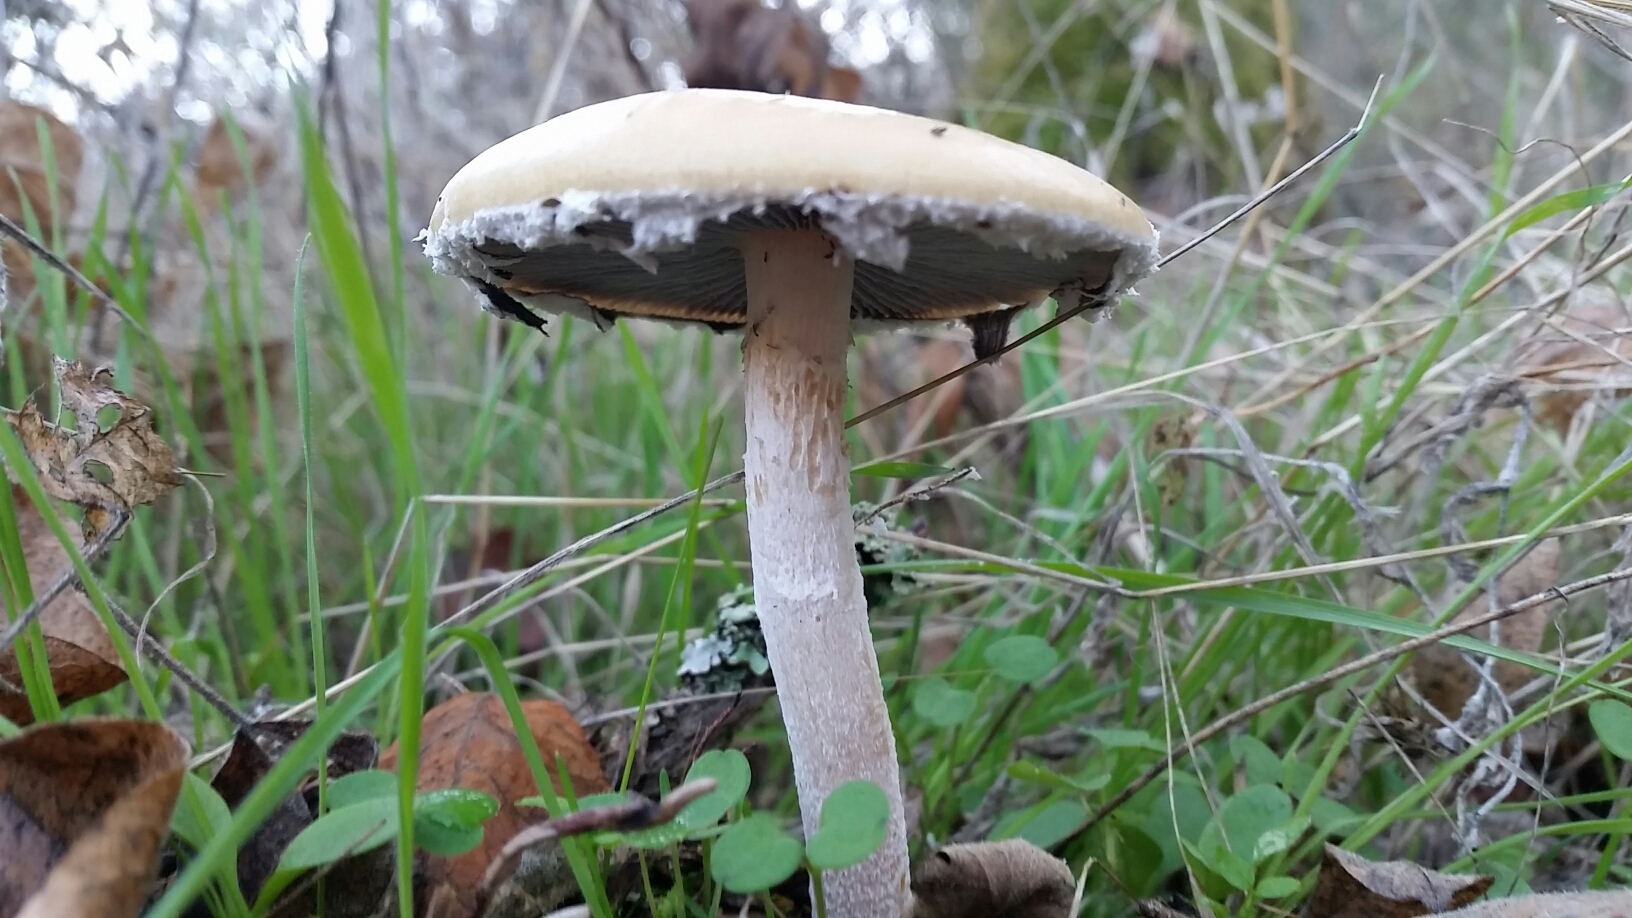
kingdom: Fungi
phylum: Basidiomycota
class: Agaricomycetes
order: Agaricales
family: Strophariaceae
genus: Stropharia
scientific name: Stropharia ambigua
